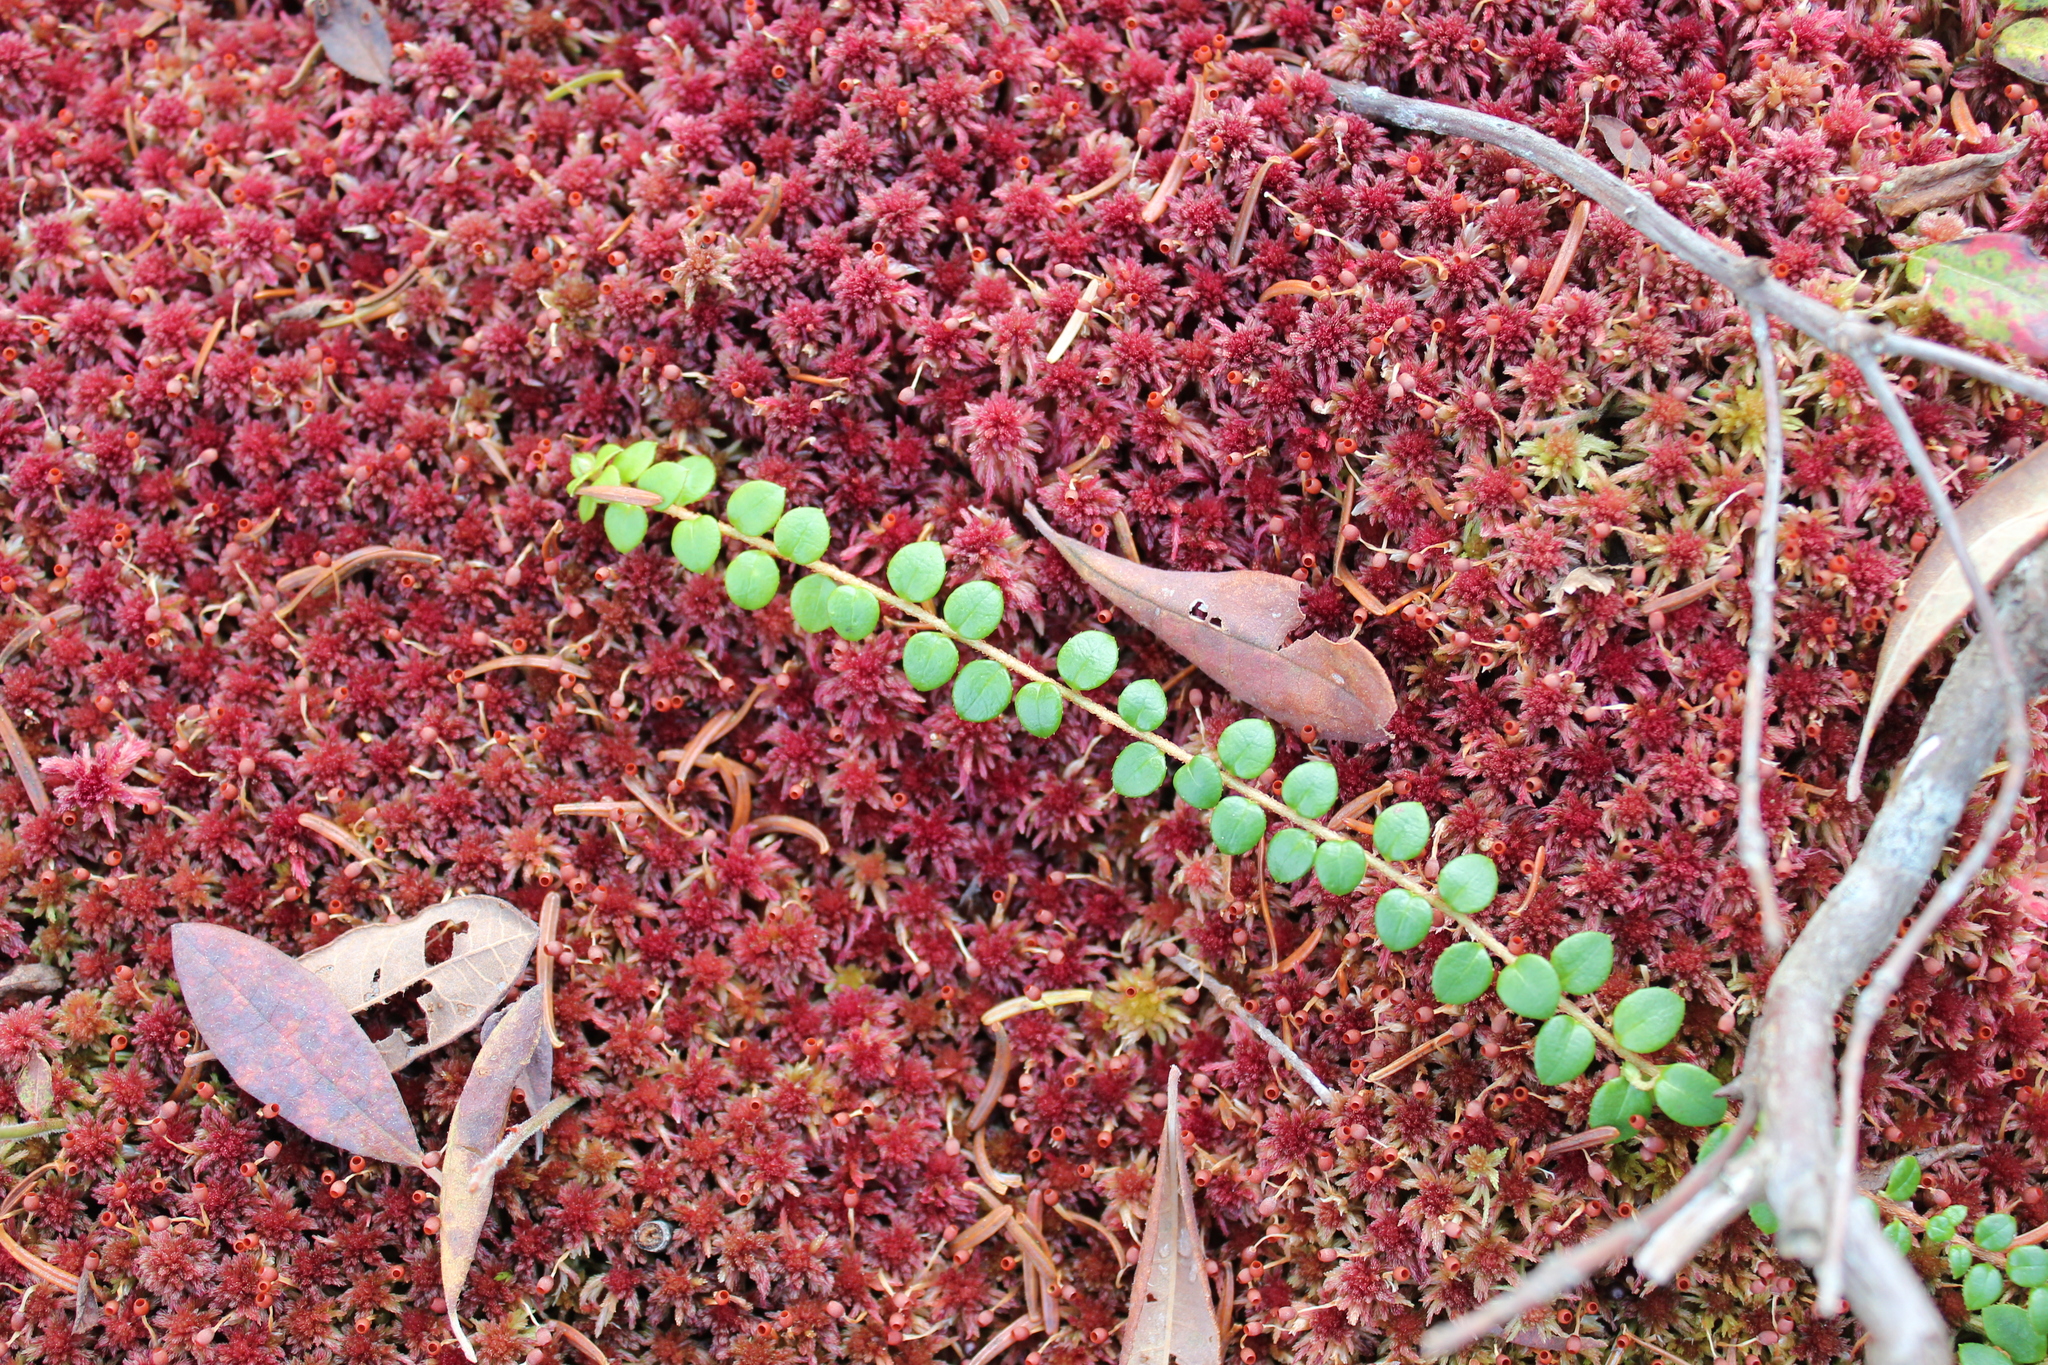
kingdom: Plantae
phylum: Tracheophyta
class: Magnoliopsida
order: Ericales
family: Ericaceae
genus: Gaultheria
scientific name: Gaultheria hispidula
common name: Cancer wintergreen
